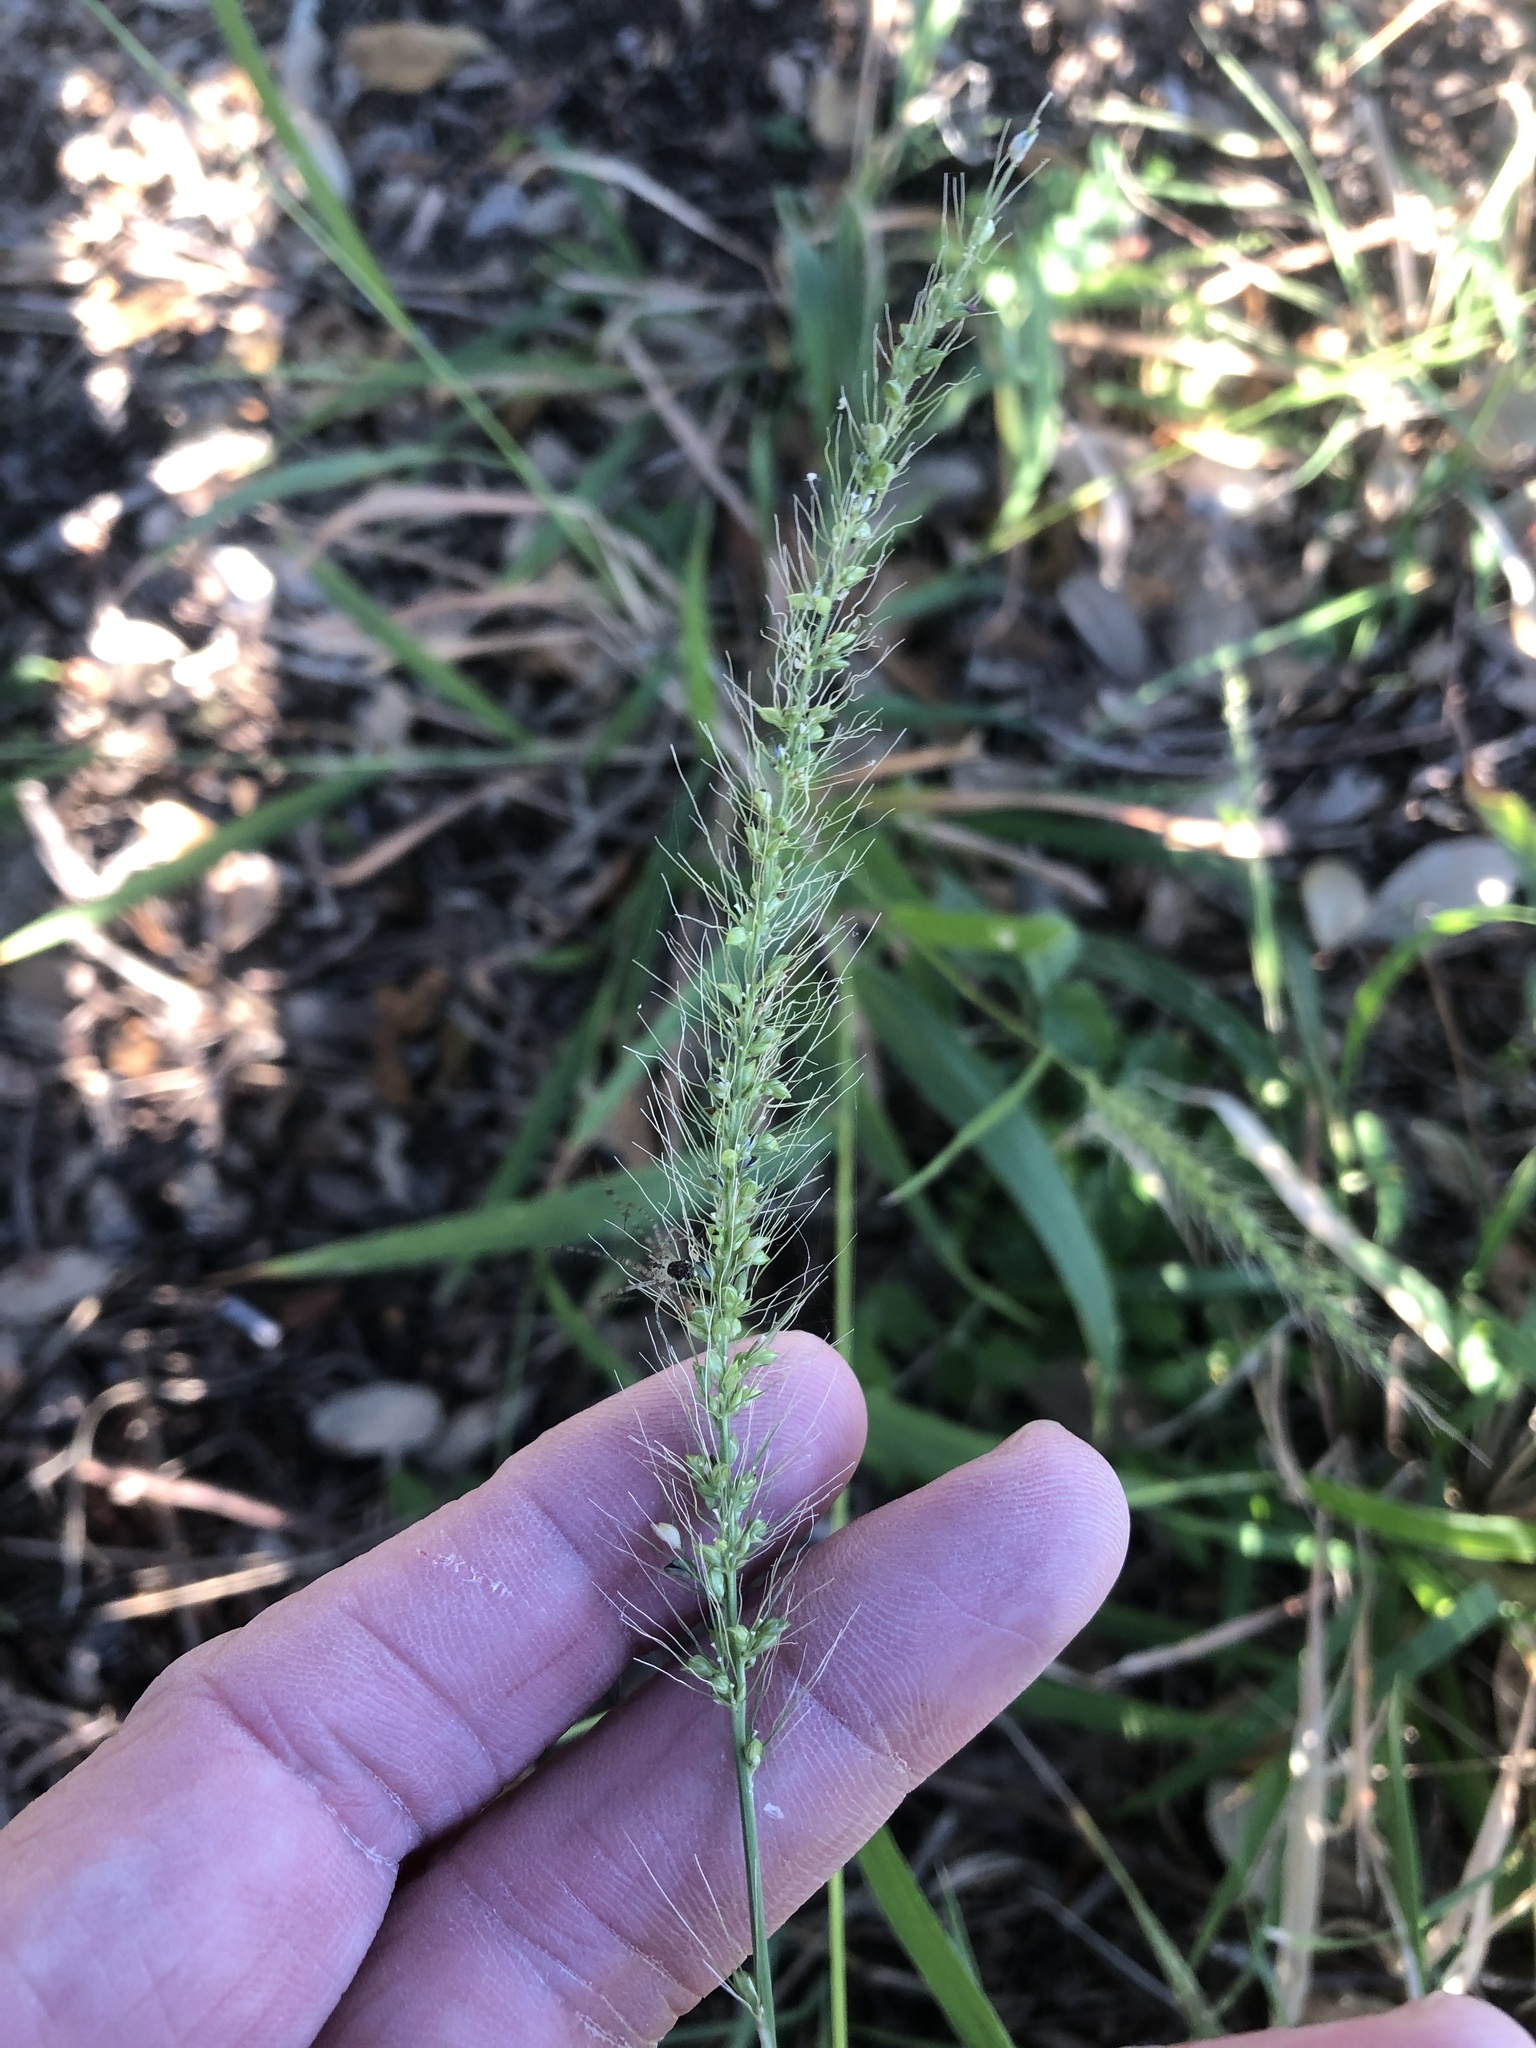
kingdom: Plantae
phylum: Tracheophyta
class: Liliopsida
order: Poales
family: Poaceae
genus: Setaria
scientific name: Setaria scheelei
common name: Southwestern bristle grass
